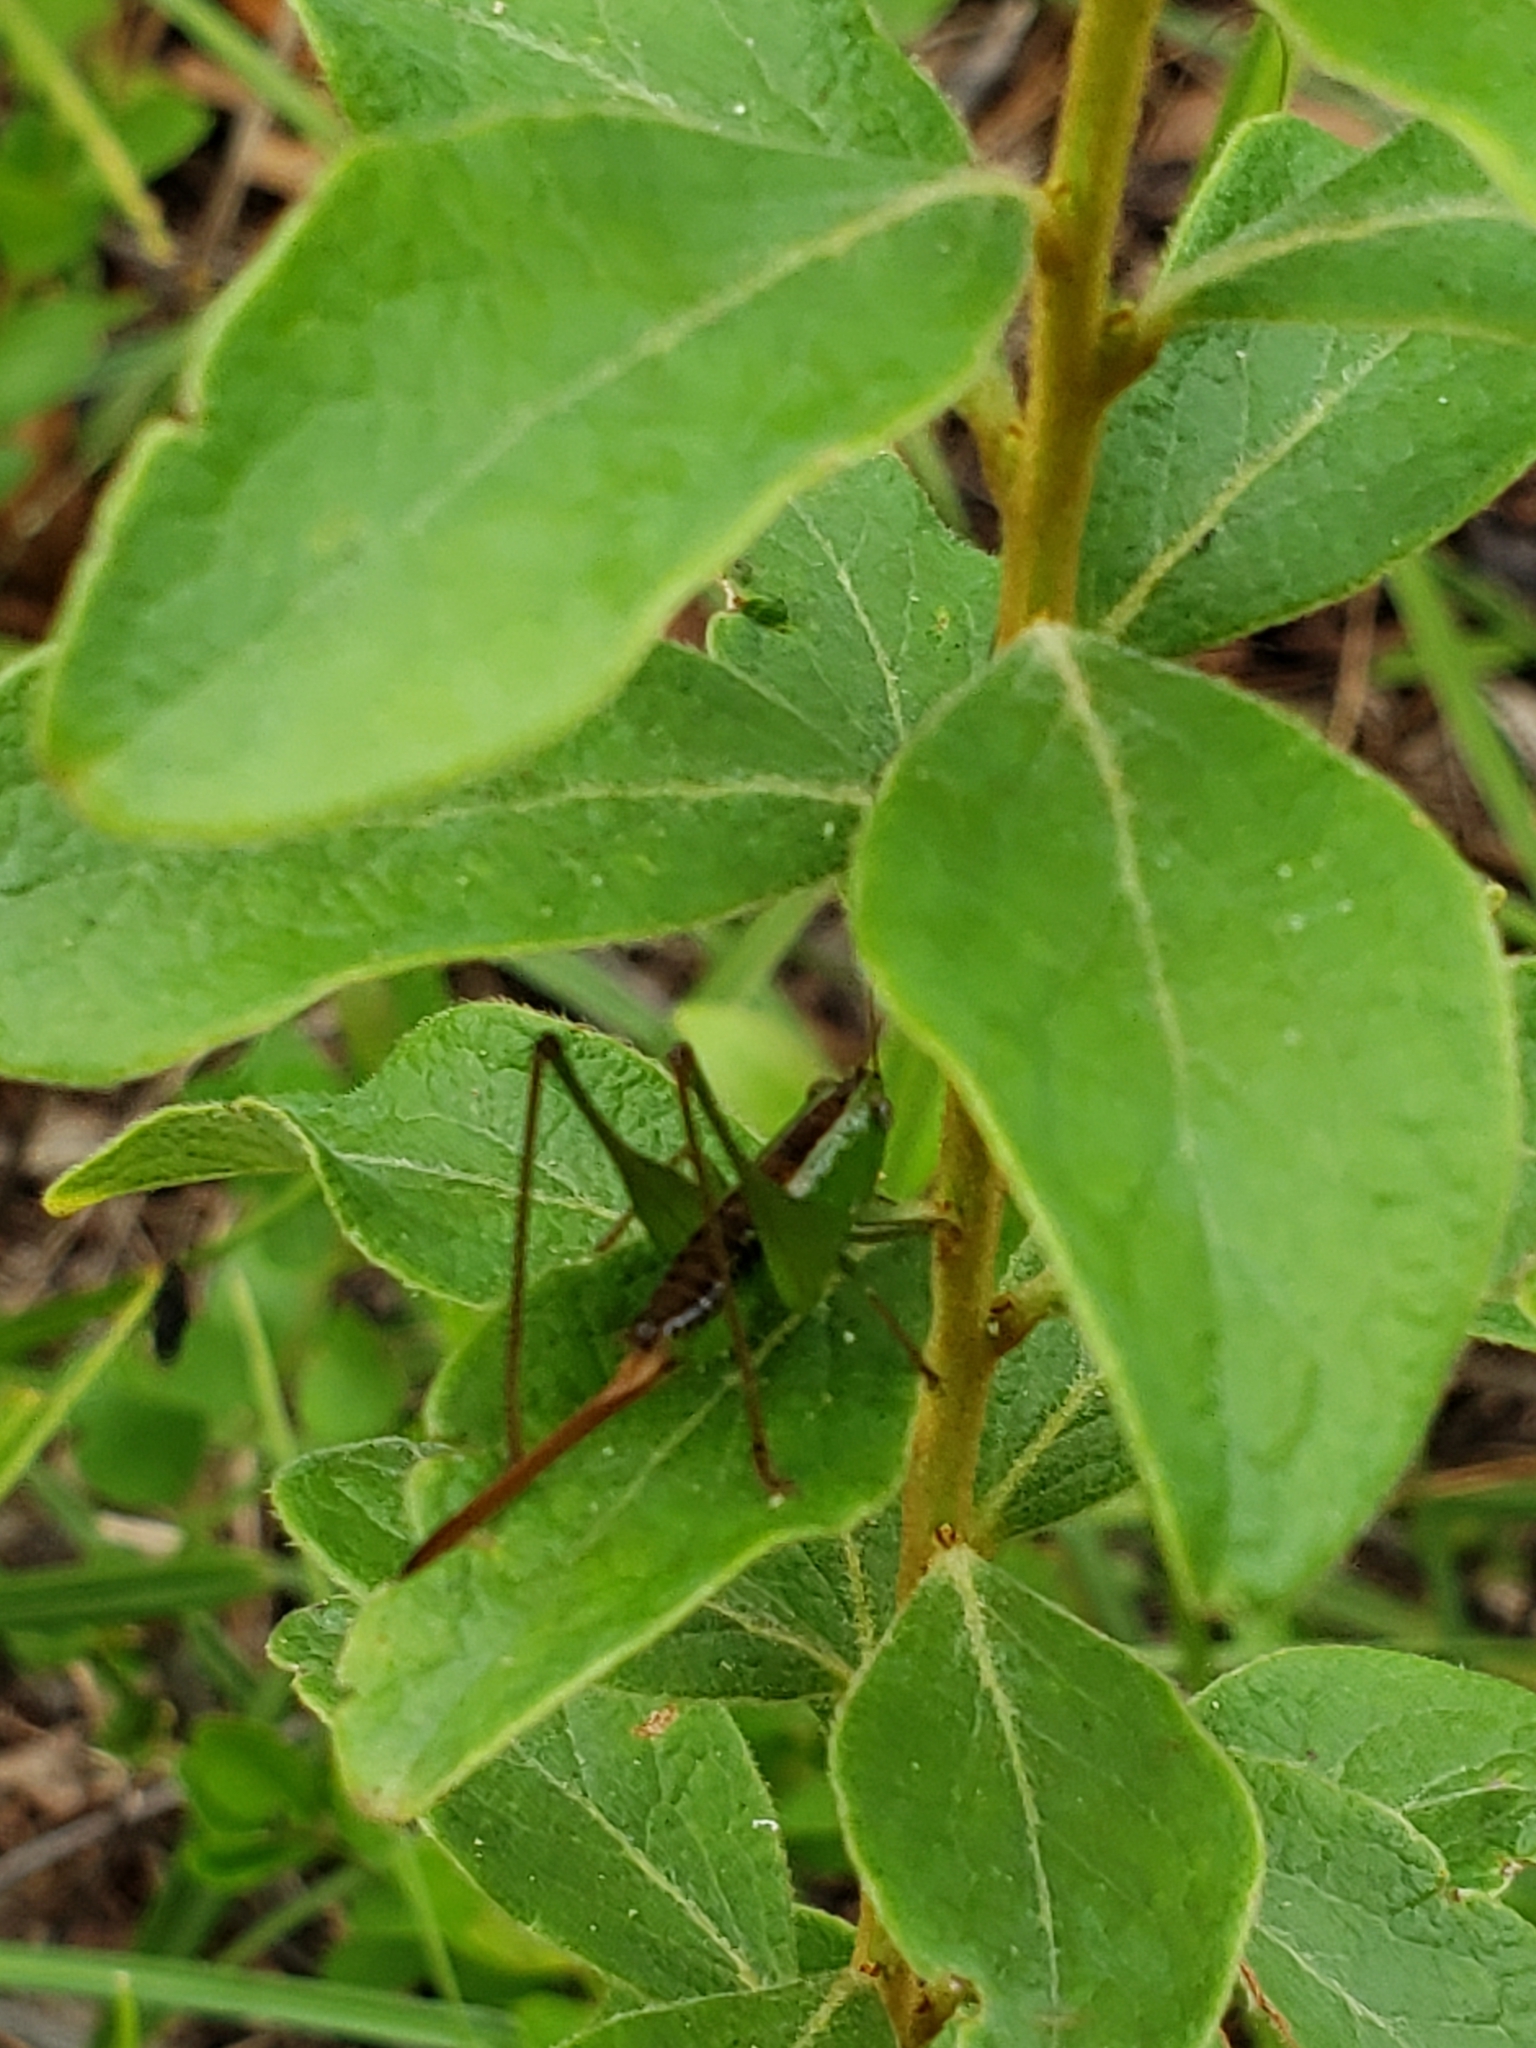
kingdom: Animalia
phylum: Arthropoda
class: Insecta
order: Orthoptera
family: Tettigoniidae
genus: Odontoxiphidium
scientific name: Odontoxiphidium apterum
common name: Wingless meadow katydid
